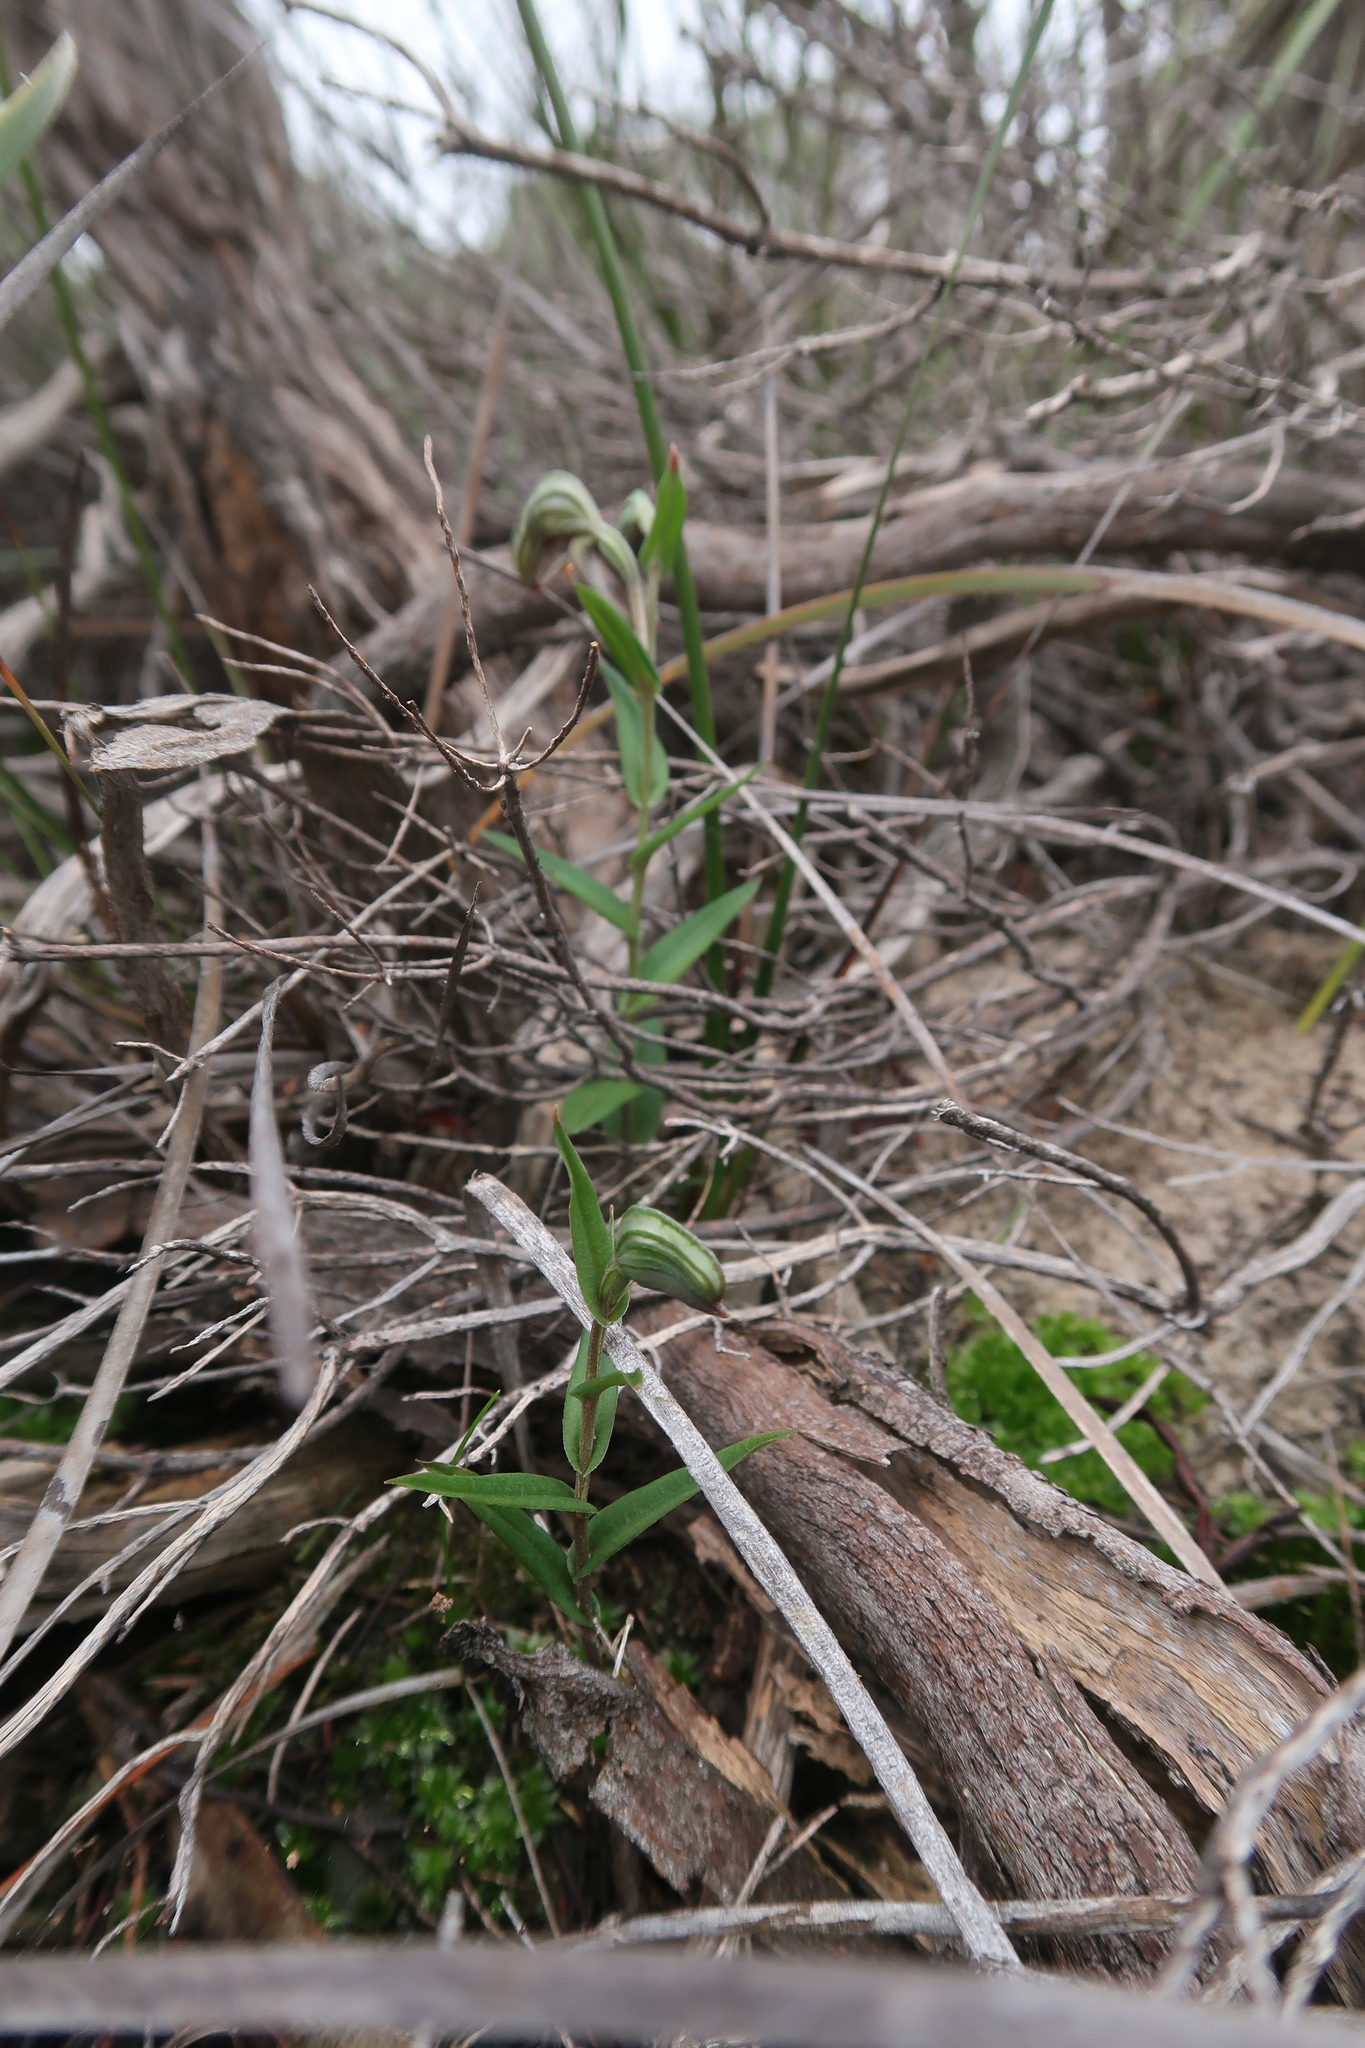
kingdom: Plantae
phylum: Tracheophyta
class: Liliopsida
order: Asparagales
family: Orchidaceae
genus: Pterostylis
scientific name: Pterostylis sanguinea
